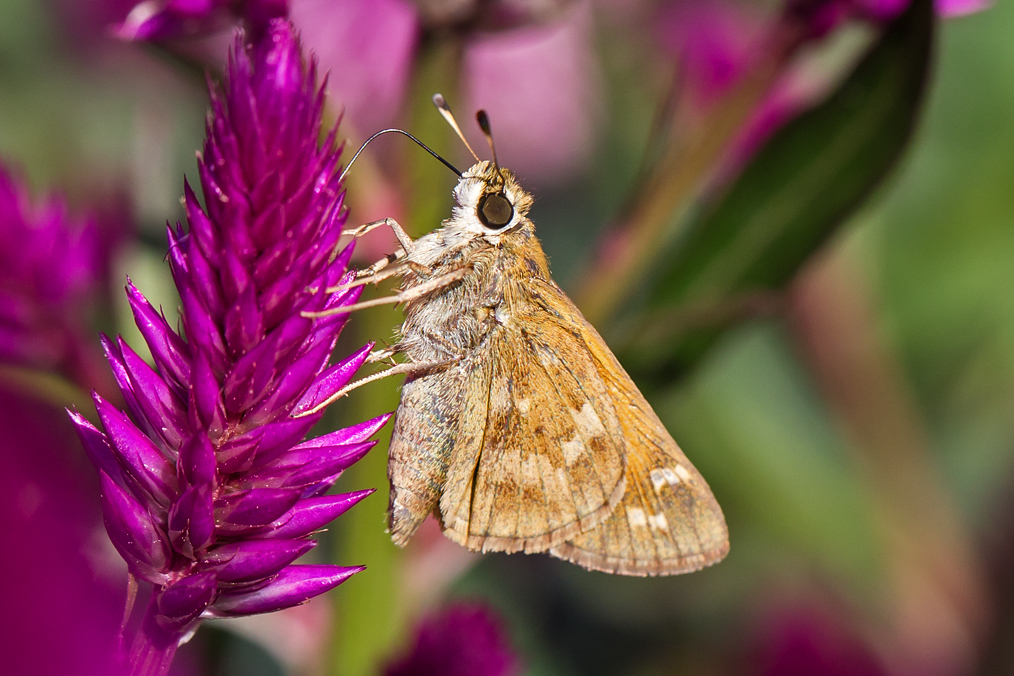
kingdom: Animalia
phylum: Arthropoda
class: Insecta
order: Lepidoptera
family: Hesperiidae
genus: Atalopedes
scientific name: Atalopedes
